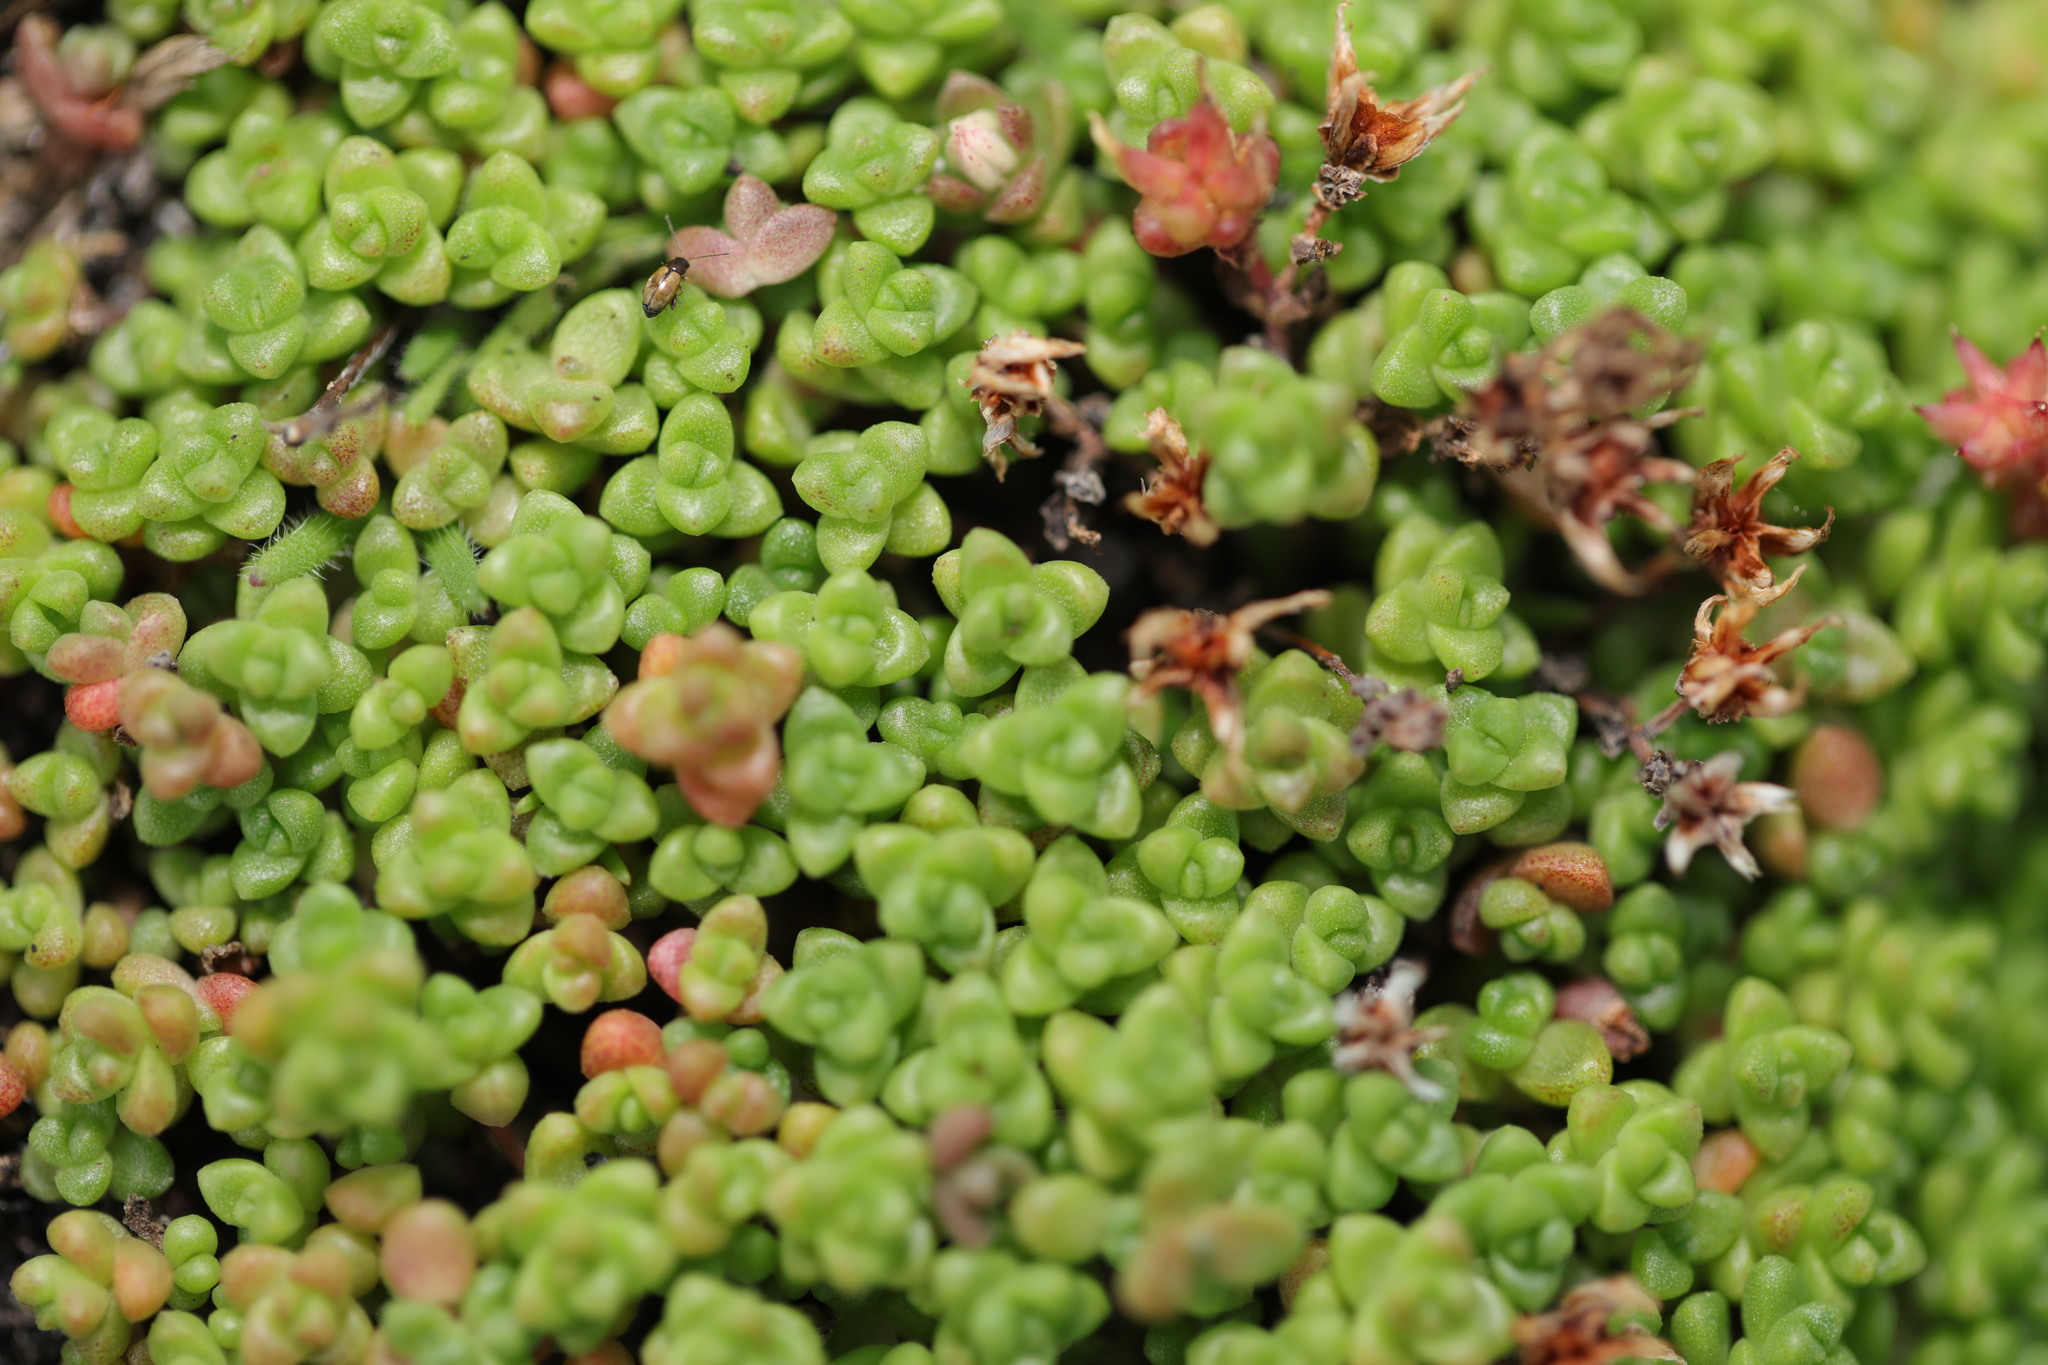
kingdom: Plantae
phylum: Tracheophyta
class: Magnoliopsida
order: Saxifragales
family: Crassulaceae
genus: Sedum
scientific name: Sedum anglicum
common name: English stonecrop
